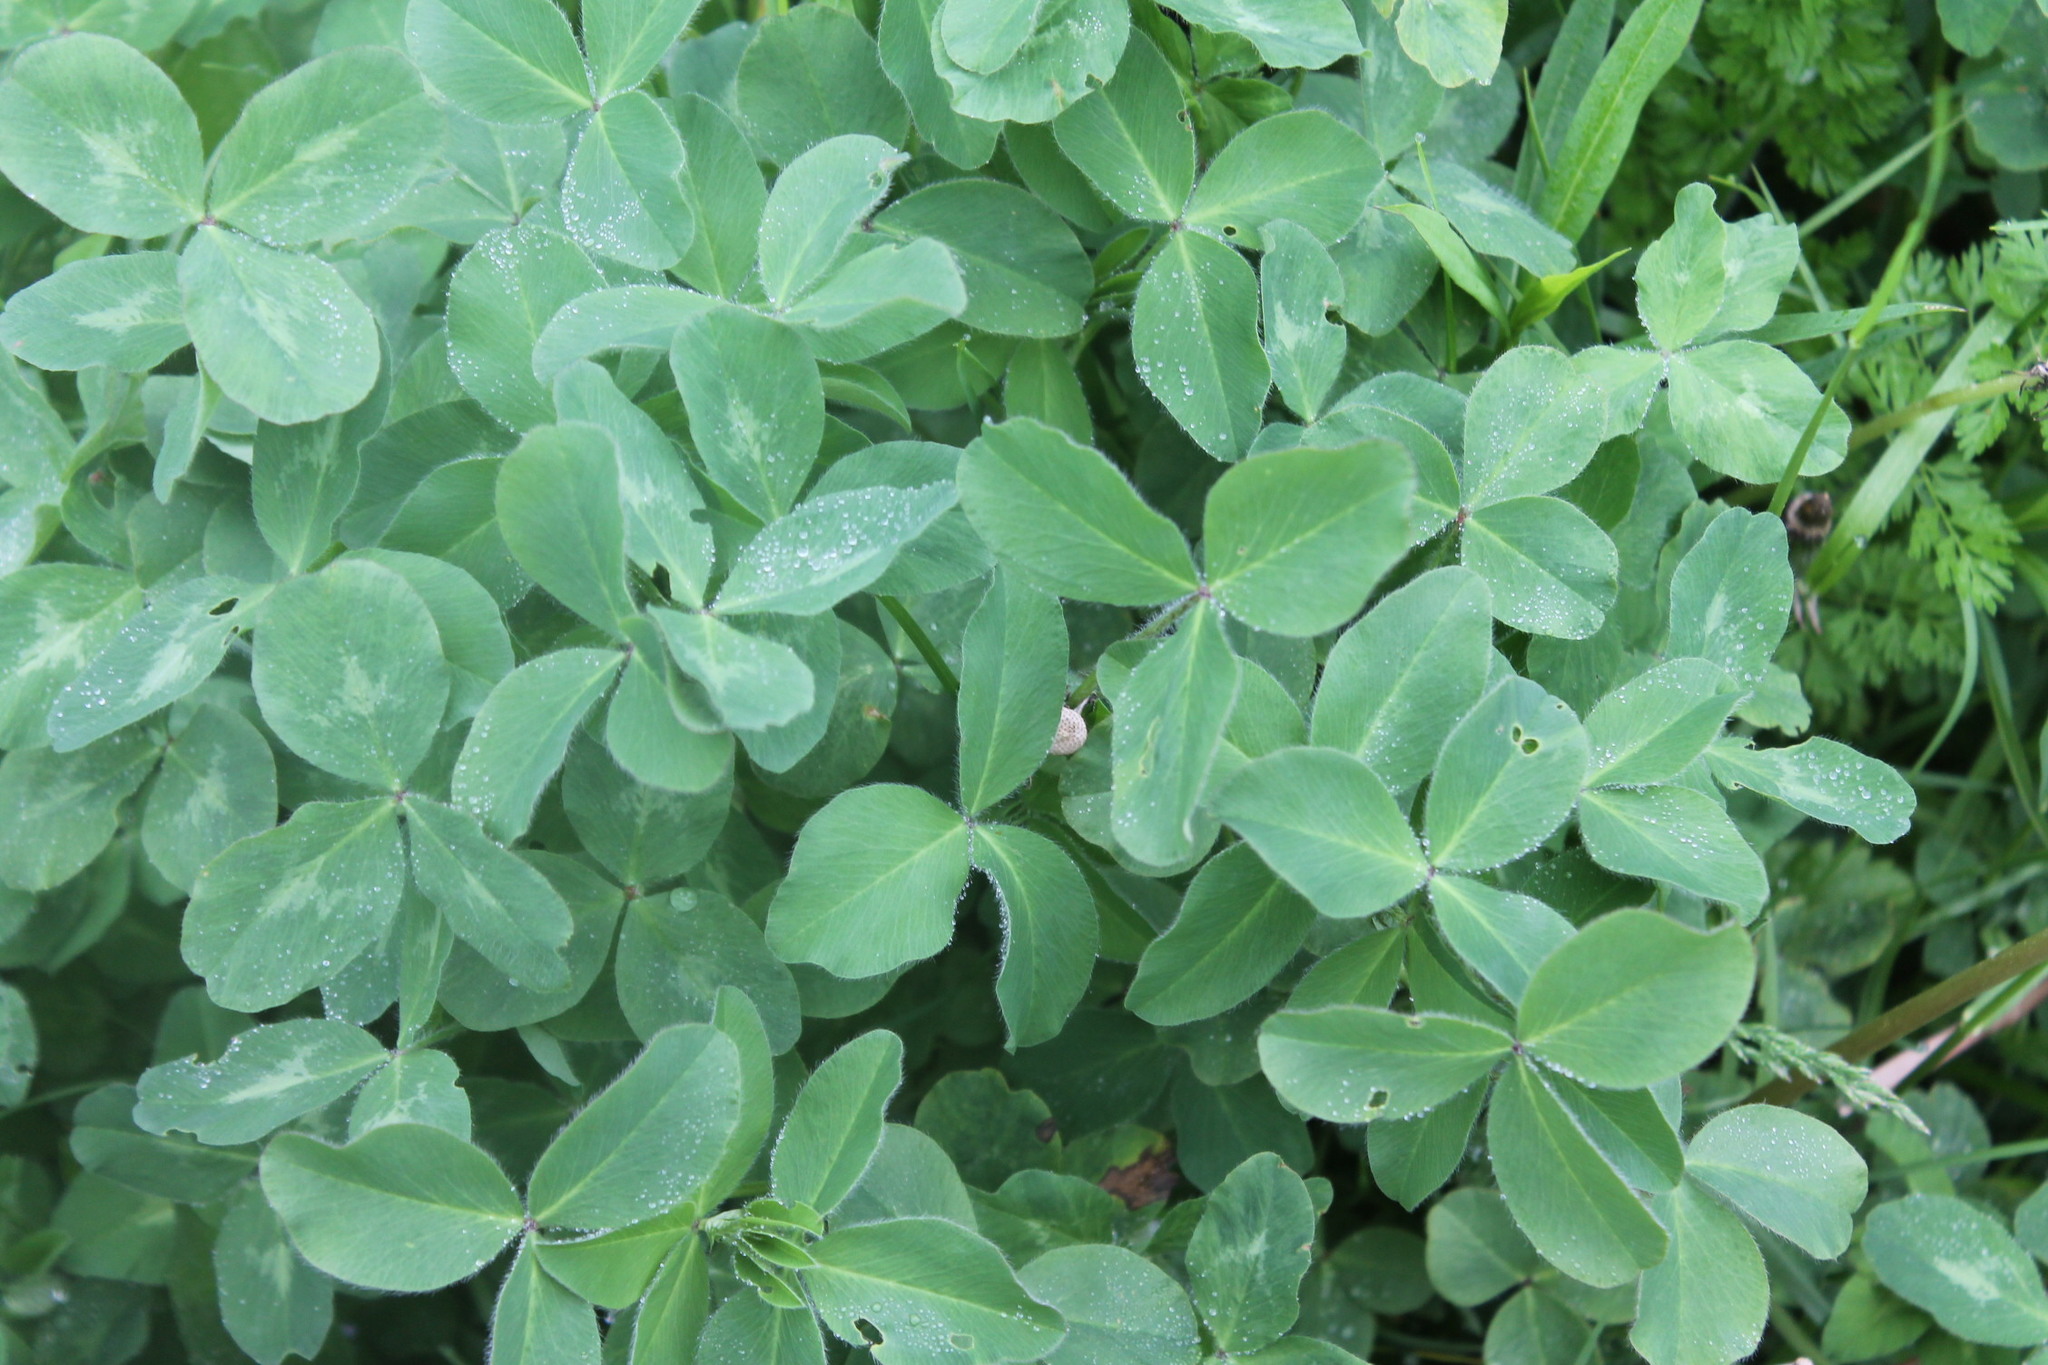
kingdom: Plantae
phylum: Tracheophyta
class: Magnoliopsida
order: Fabales
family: Fabaceae
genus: Trifolium
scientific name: Trifolium pratense
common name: Red clover
